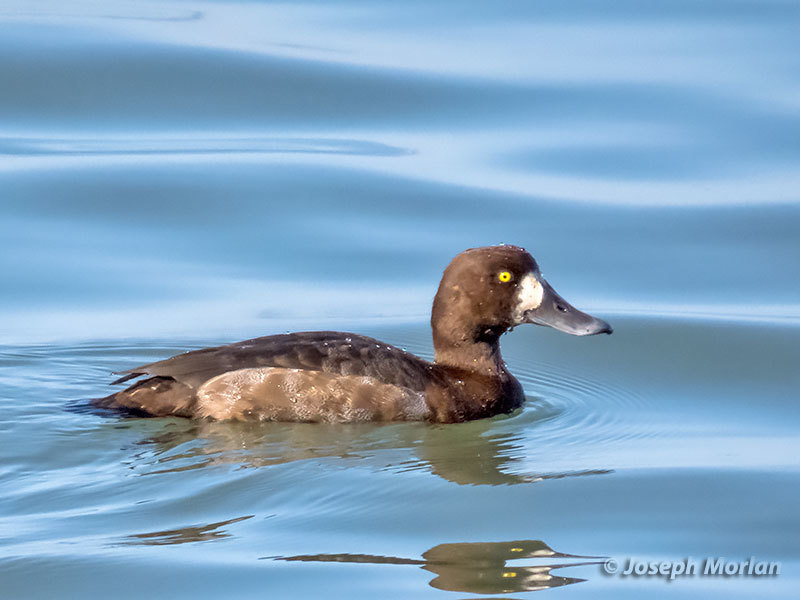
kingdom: Animalia
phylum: Chordata
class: Aves
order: Anseriformes
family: Anatidae
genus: Aythya
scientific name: Aythya marila
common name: Greater scaup
